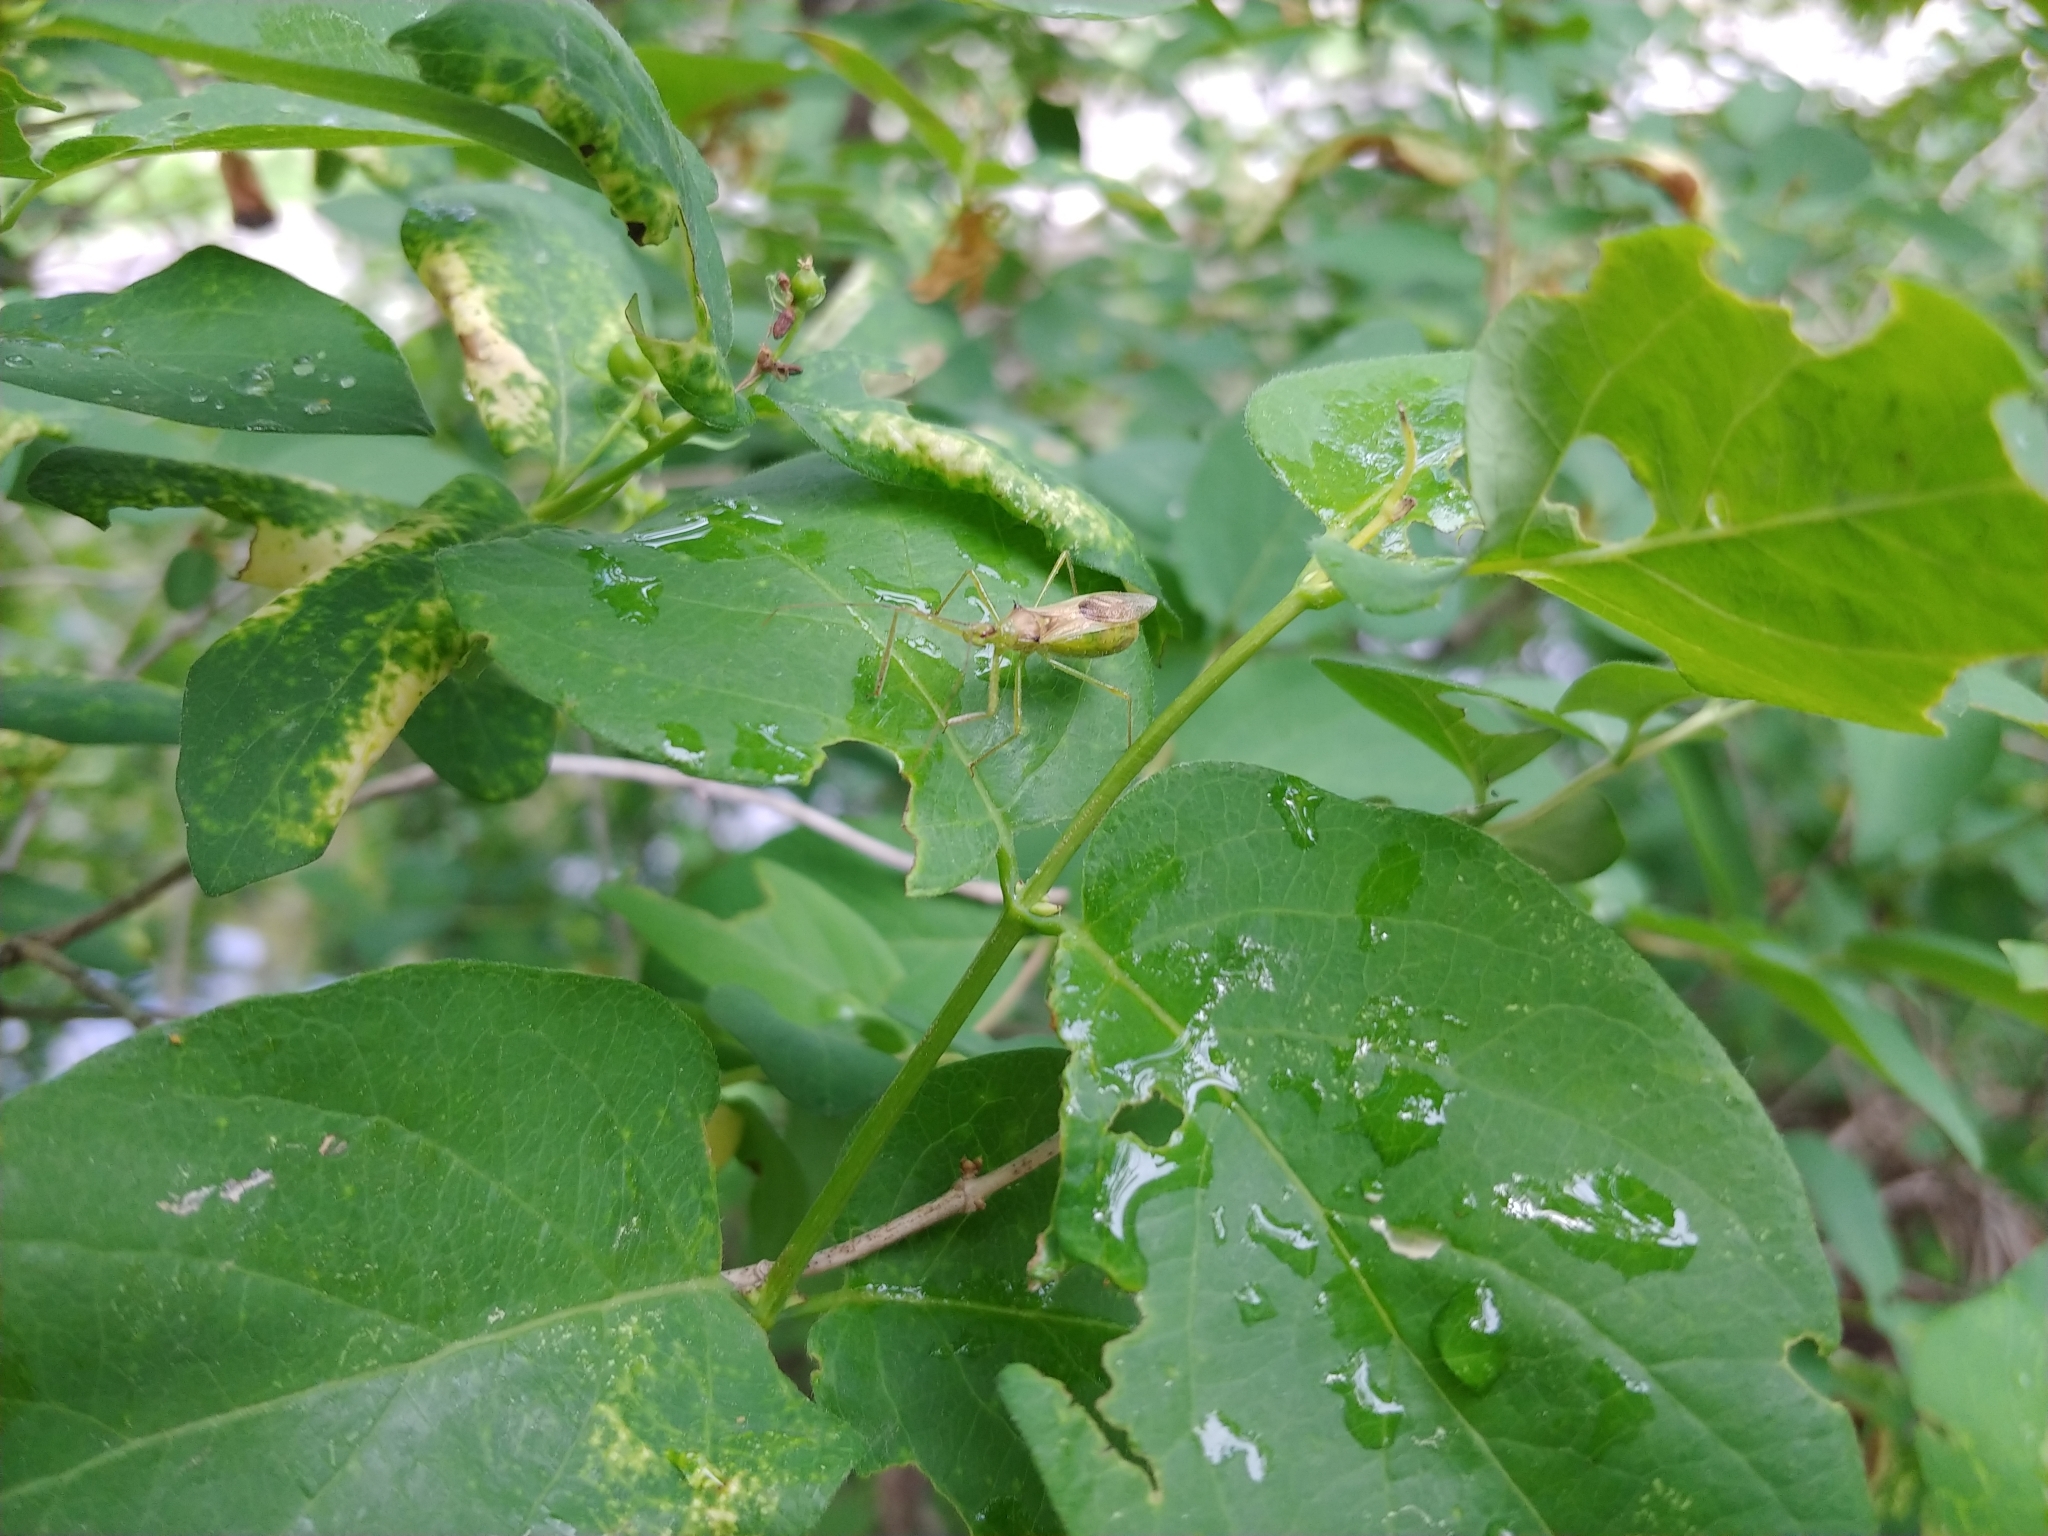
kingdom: Animalia
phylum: Arthropoda
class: Insecta
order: Hemiptera
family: Reduviidae
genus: Zelus
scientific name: Zelus luridus
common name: Pale green assassin bug
